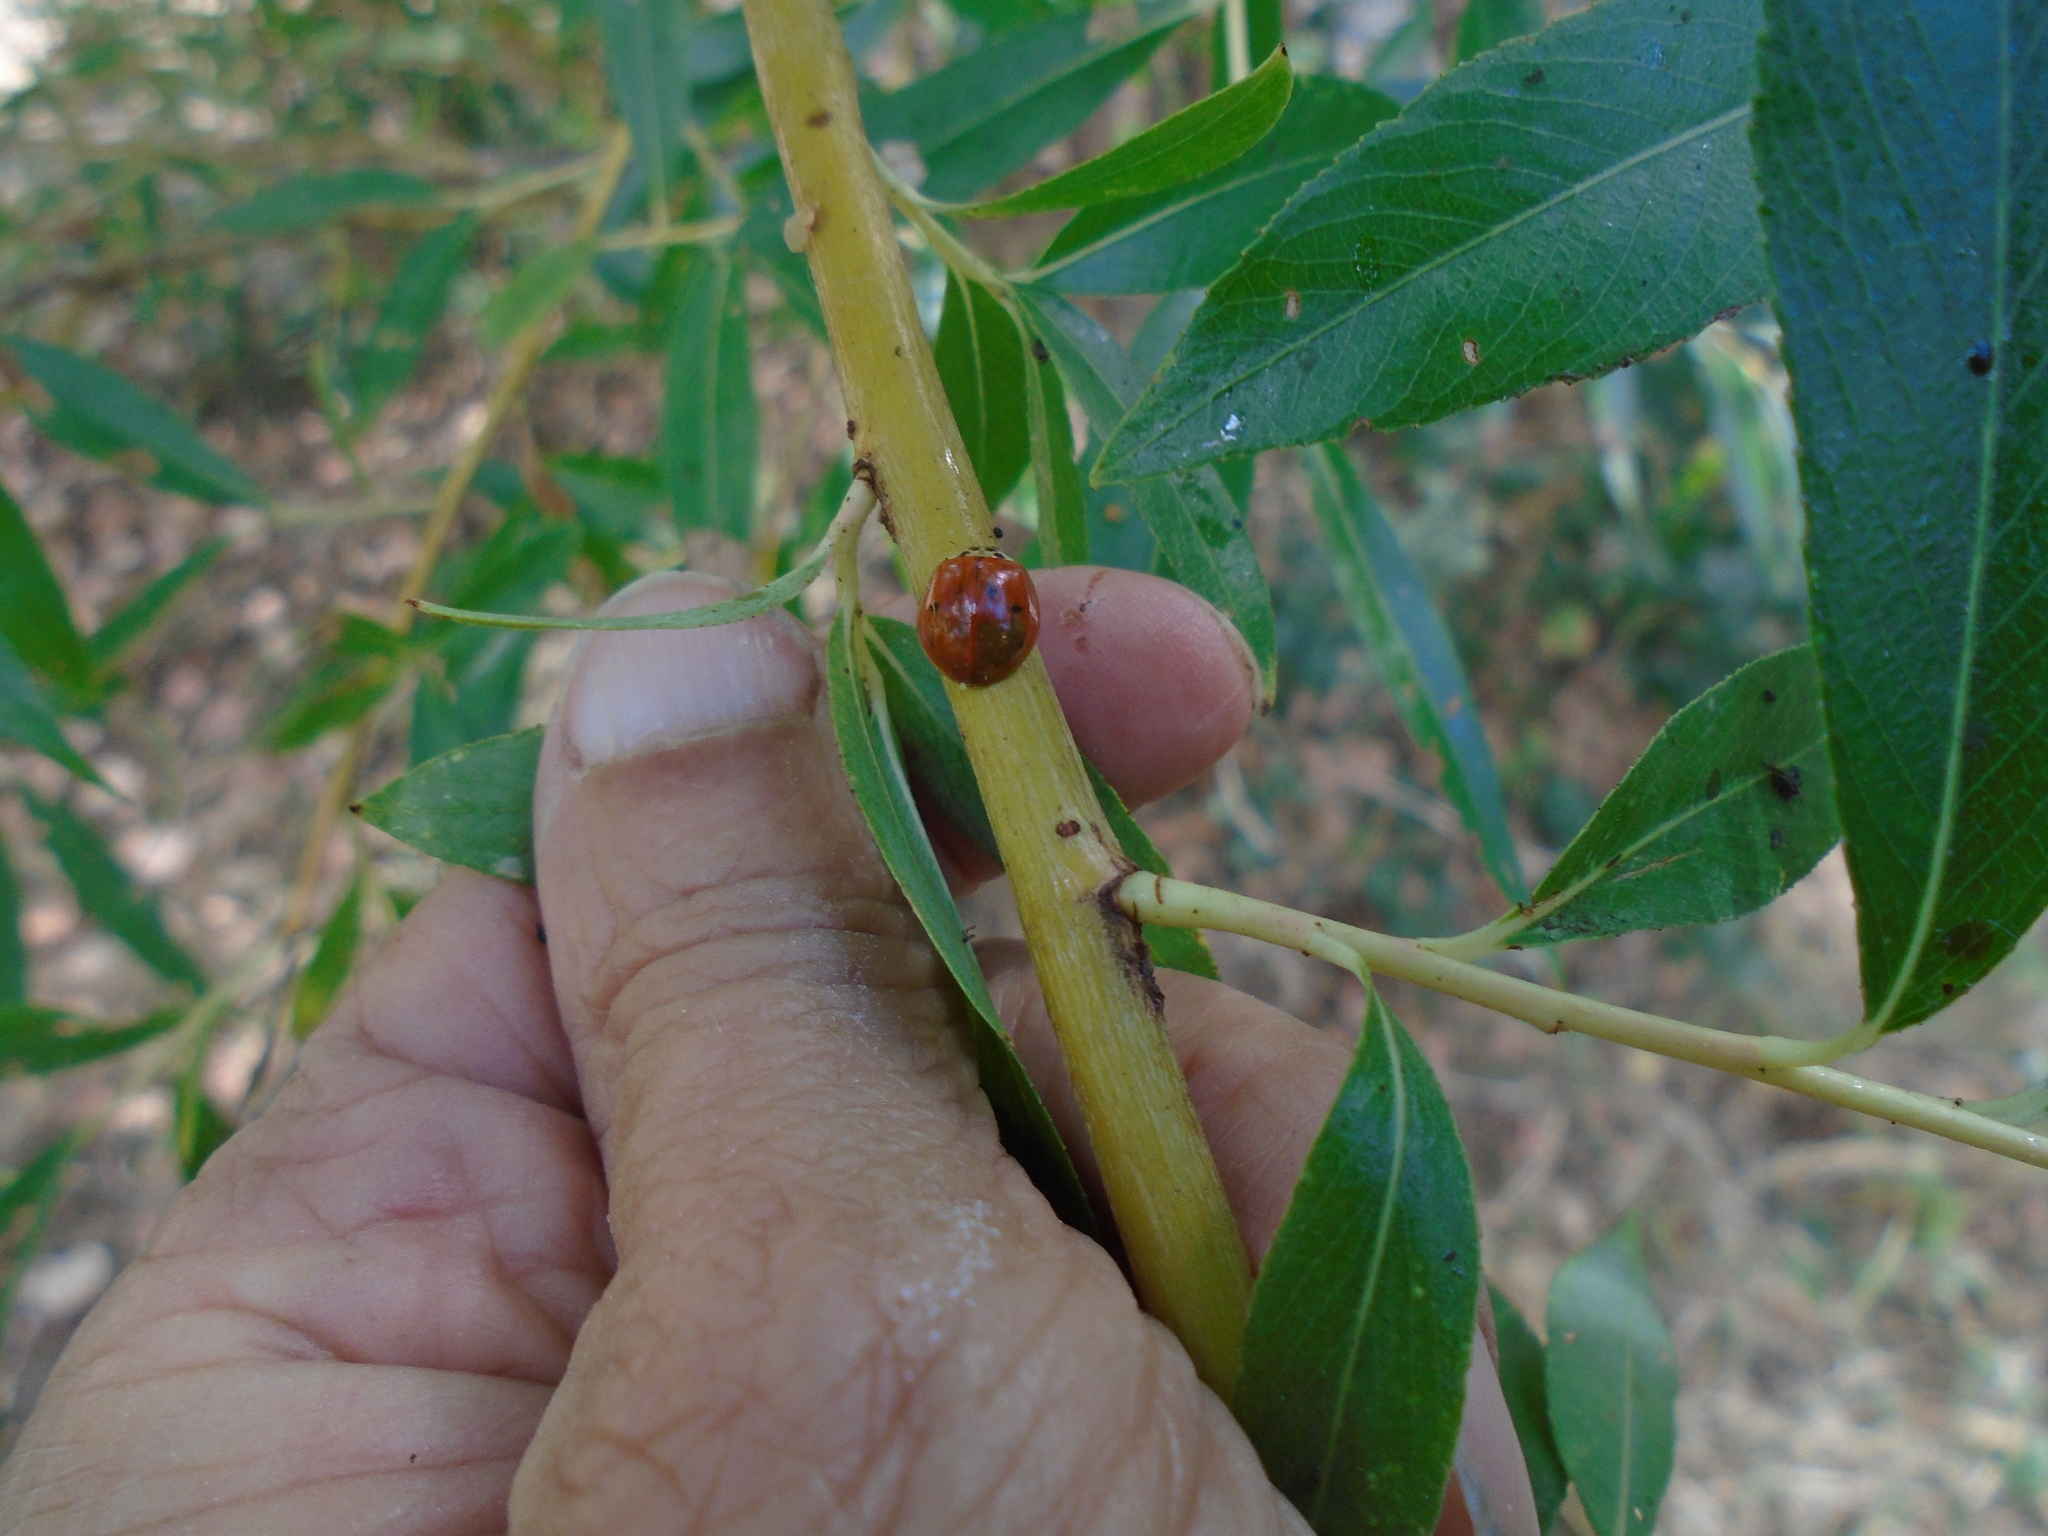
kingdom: Animalia
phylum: Arthropoda
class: Insecta
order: Coleoptera
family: Coccinellidae
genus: Harmonia
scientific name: Harmonia axyridis
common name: Harlequin ladybird
